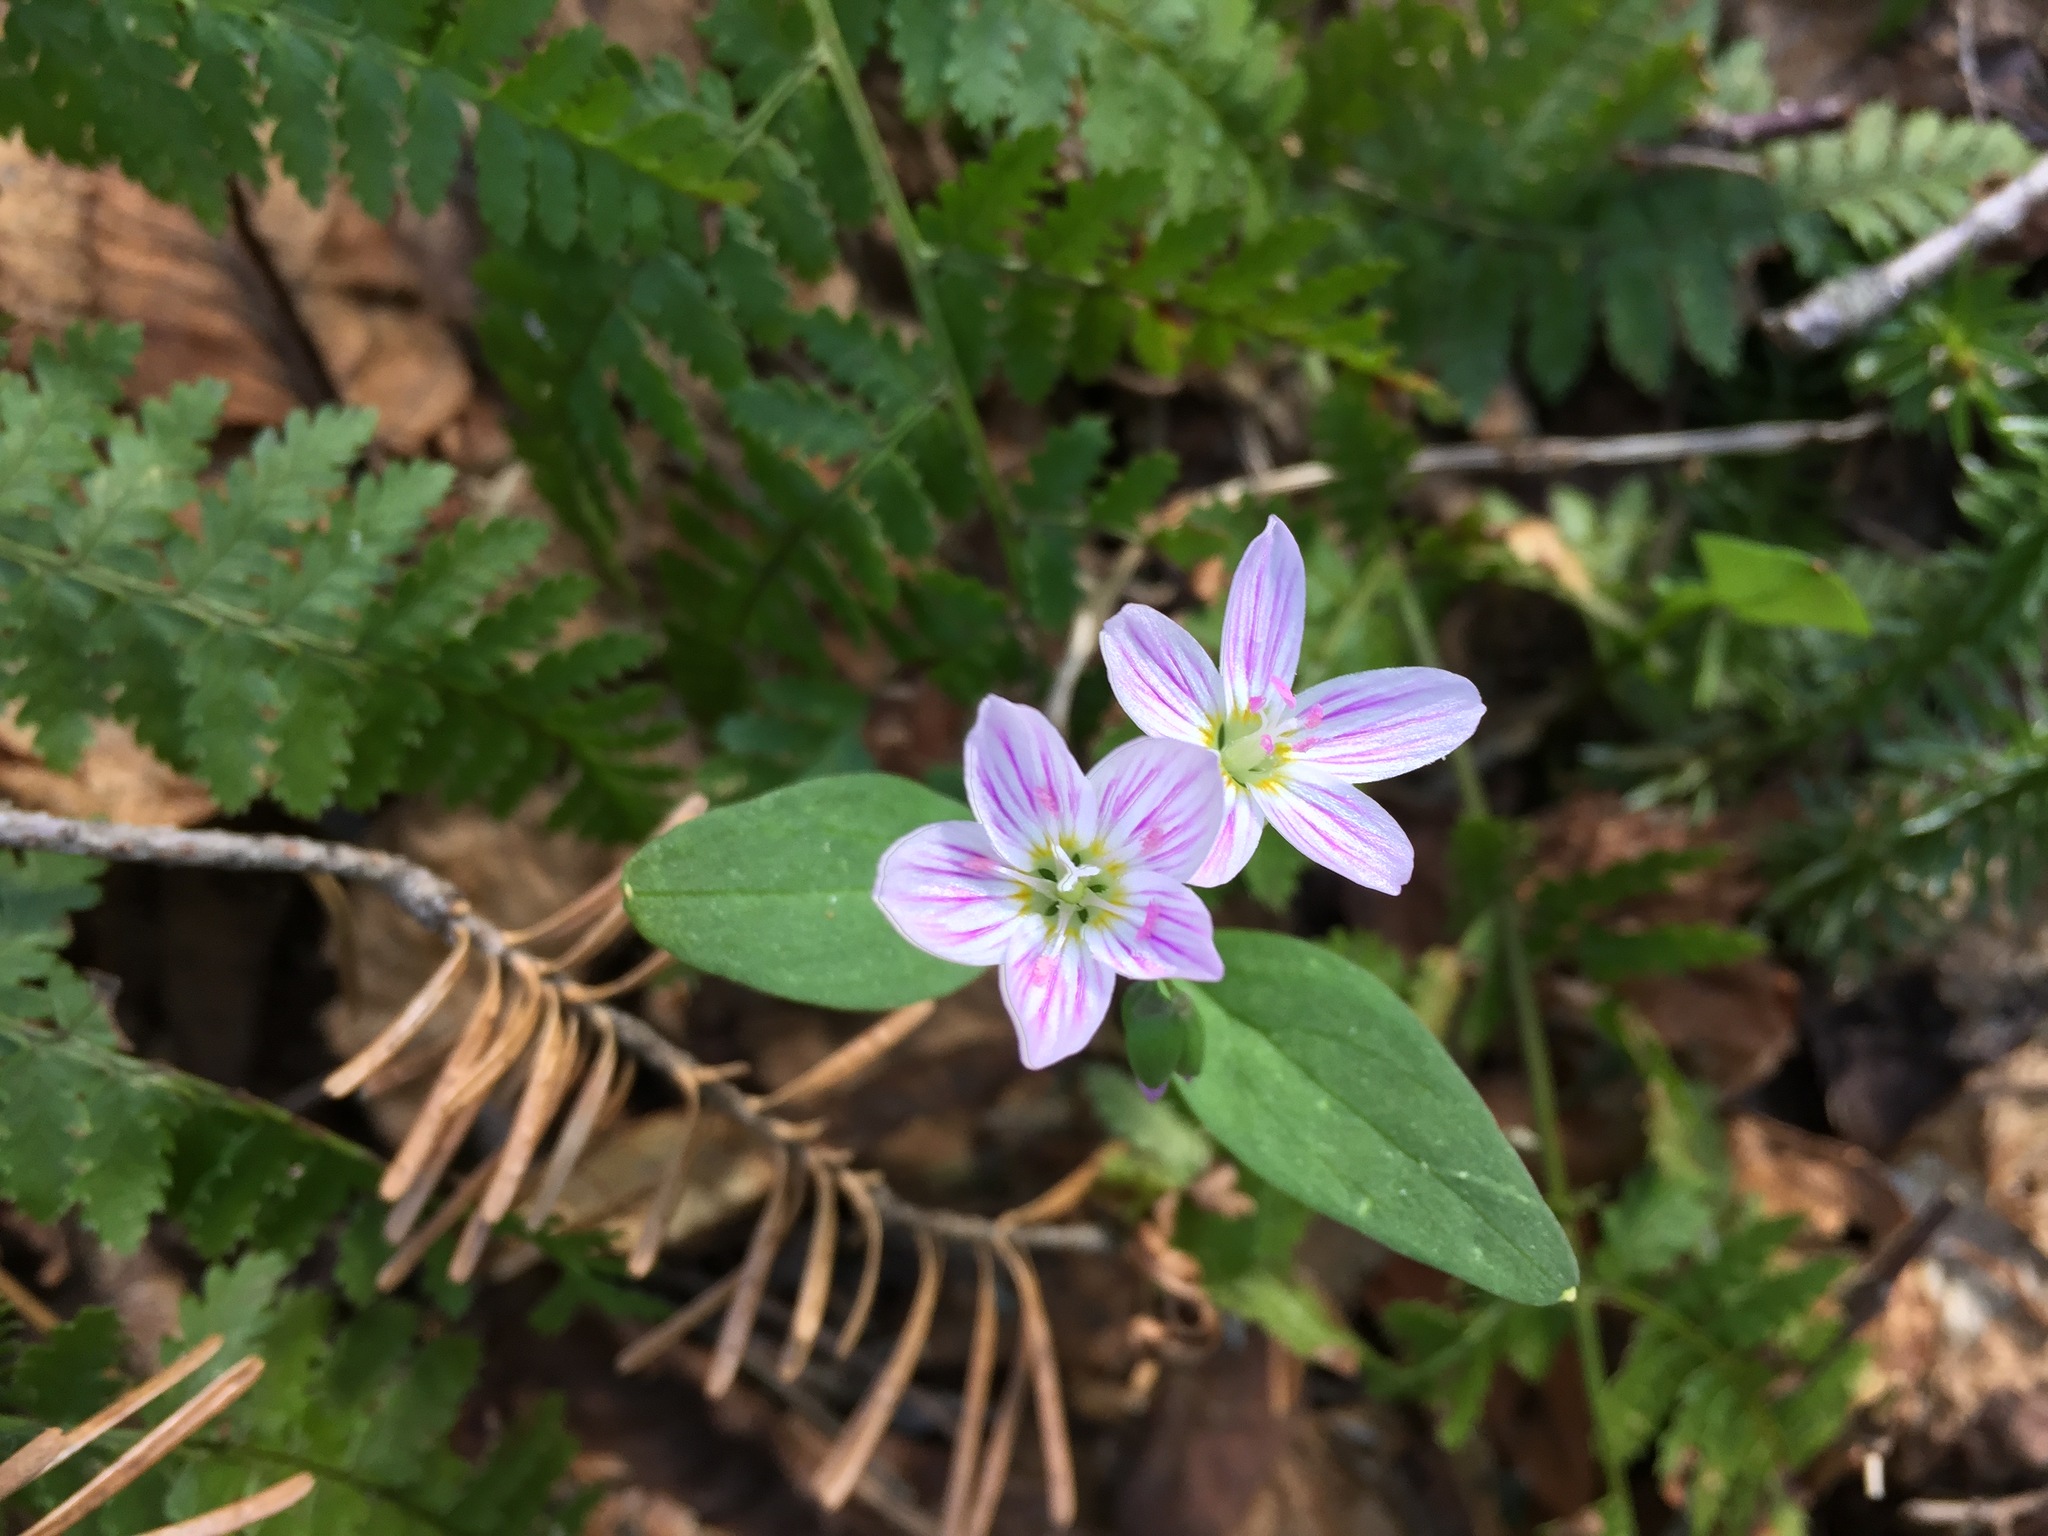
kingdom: Plantae
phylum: Tracheophyta
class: Magnoliopsida
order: Caryophyllales
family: Montiaceae
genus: Claytonia
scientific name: Claytonia caroliniana
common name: Carolina spring beauty
